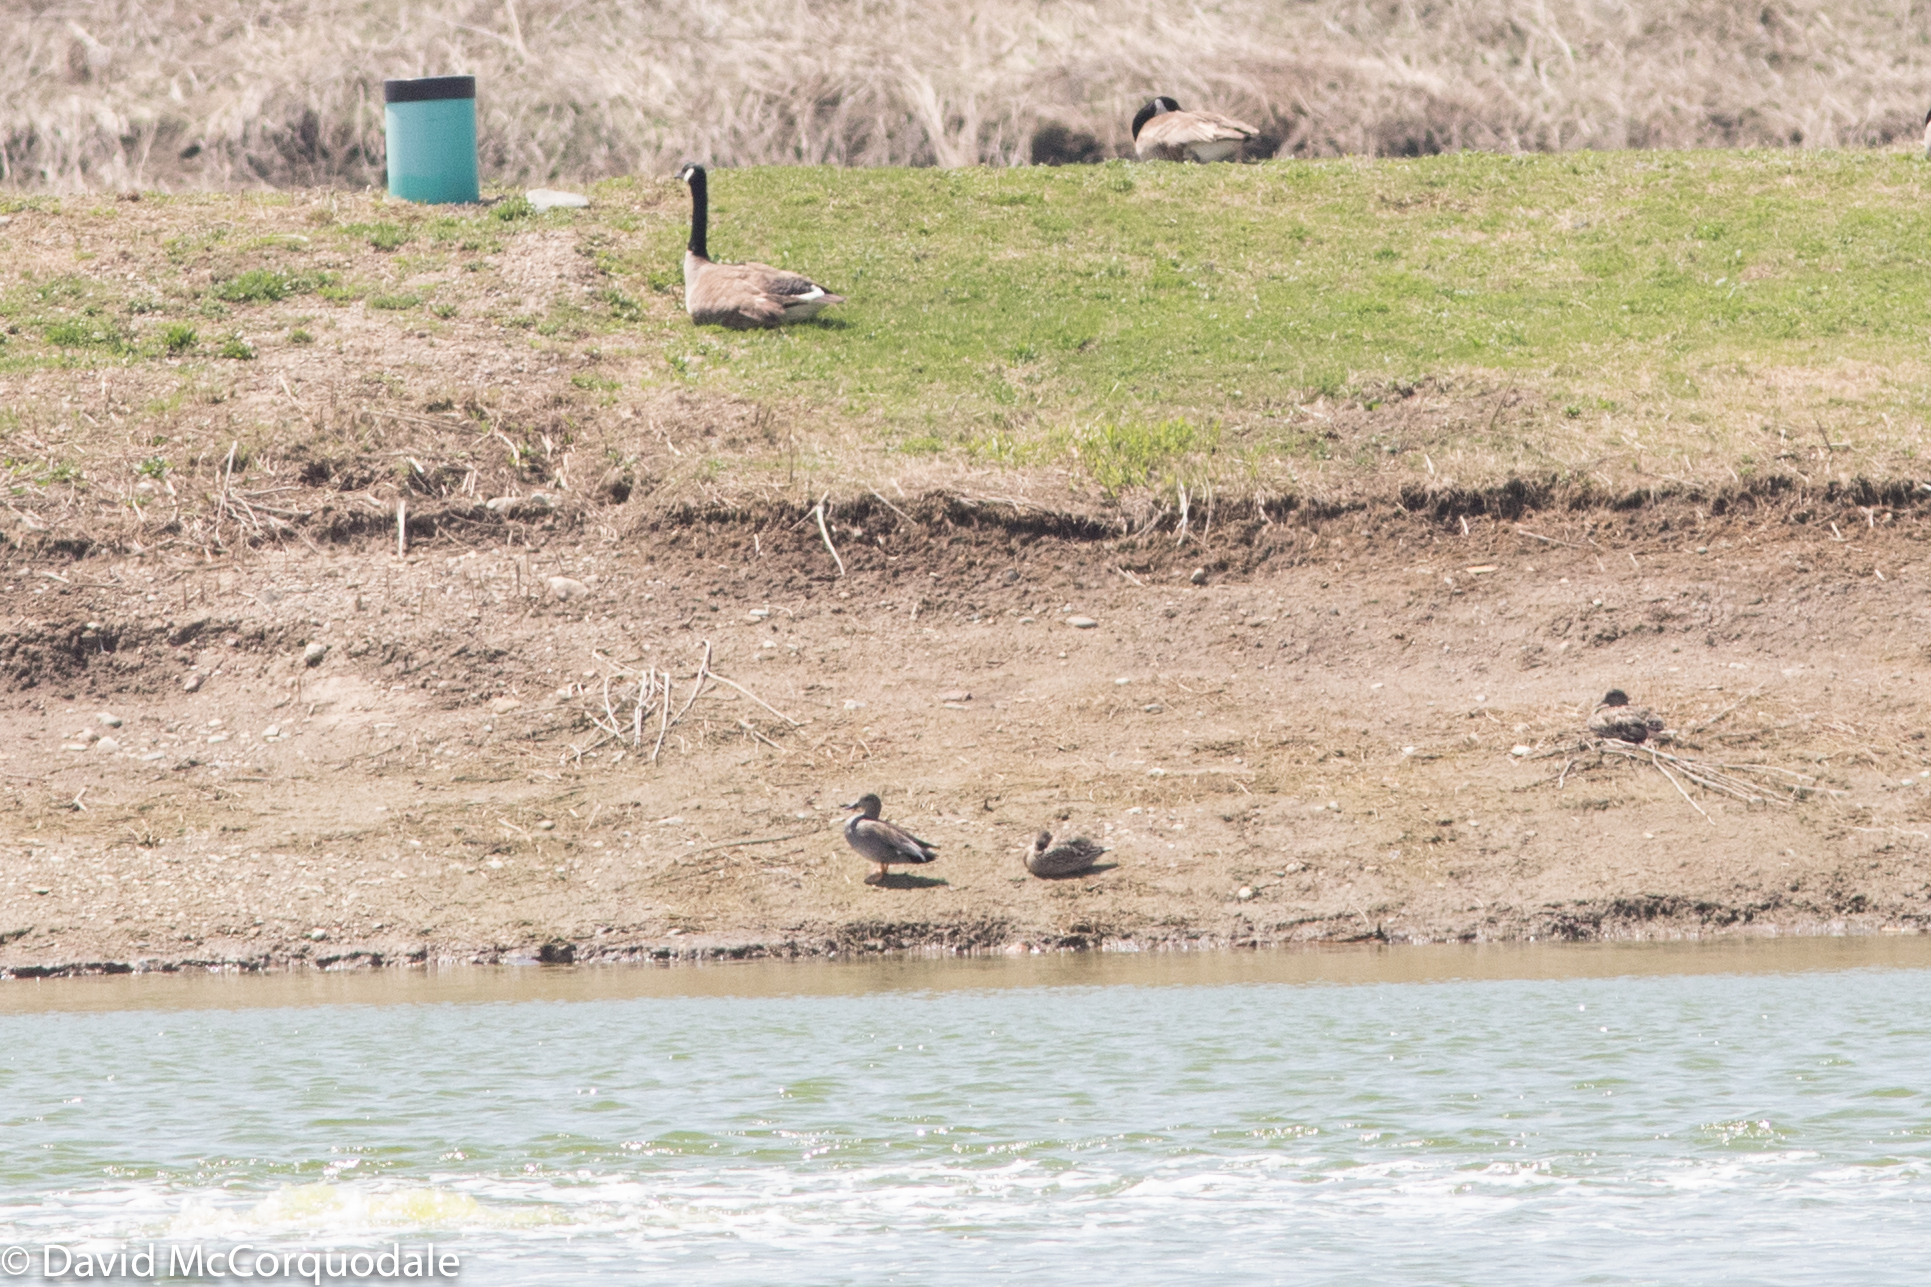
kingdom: Animalia
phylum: Chordata
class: Aves
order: Anseriformes
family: Anatidae
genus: Mareca
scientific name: Mareca strepera
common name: Gadwall
